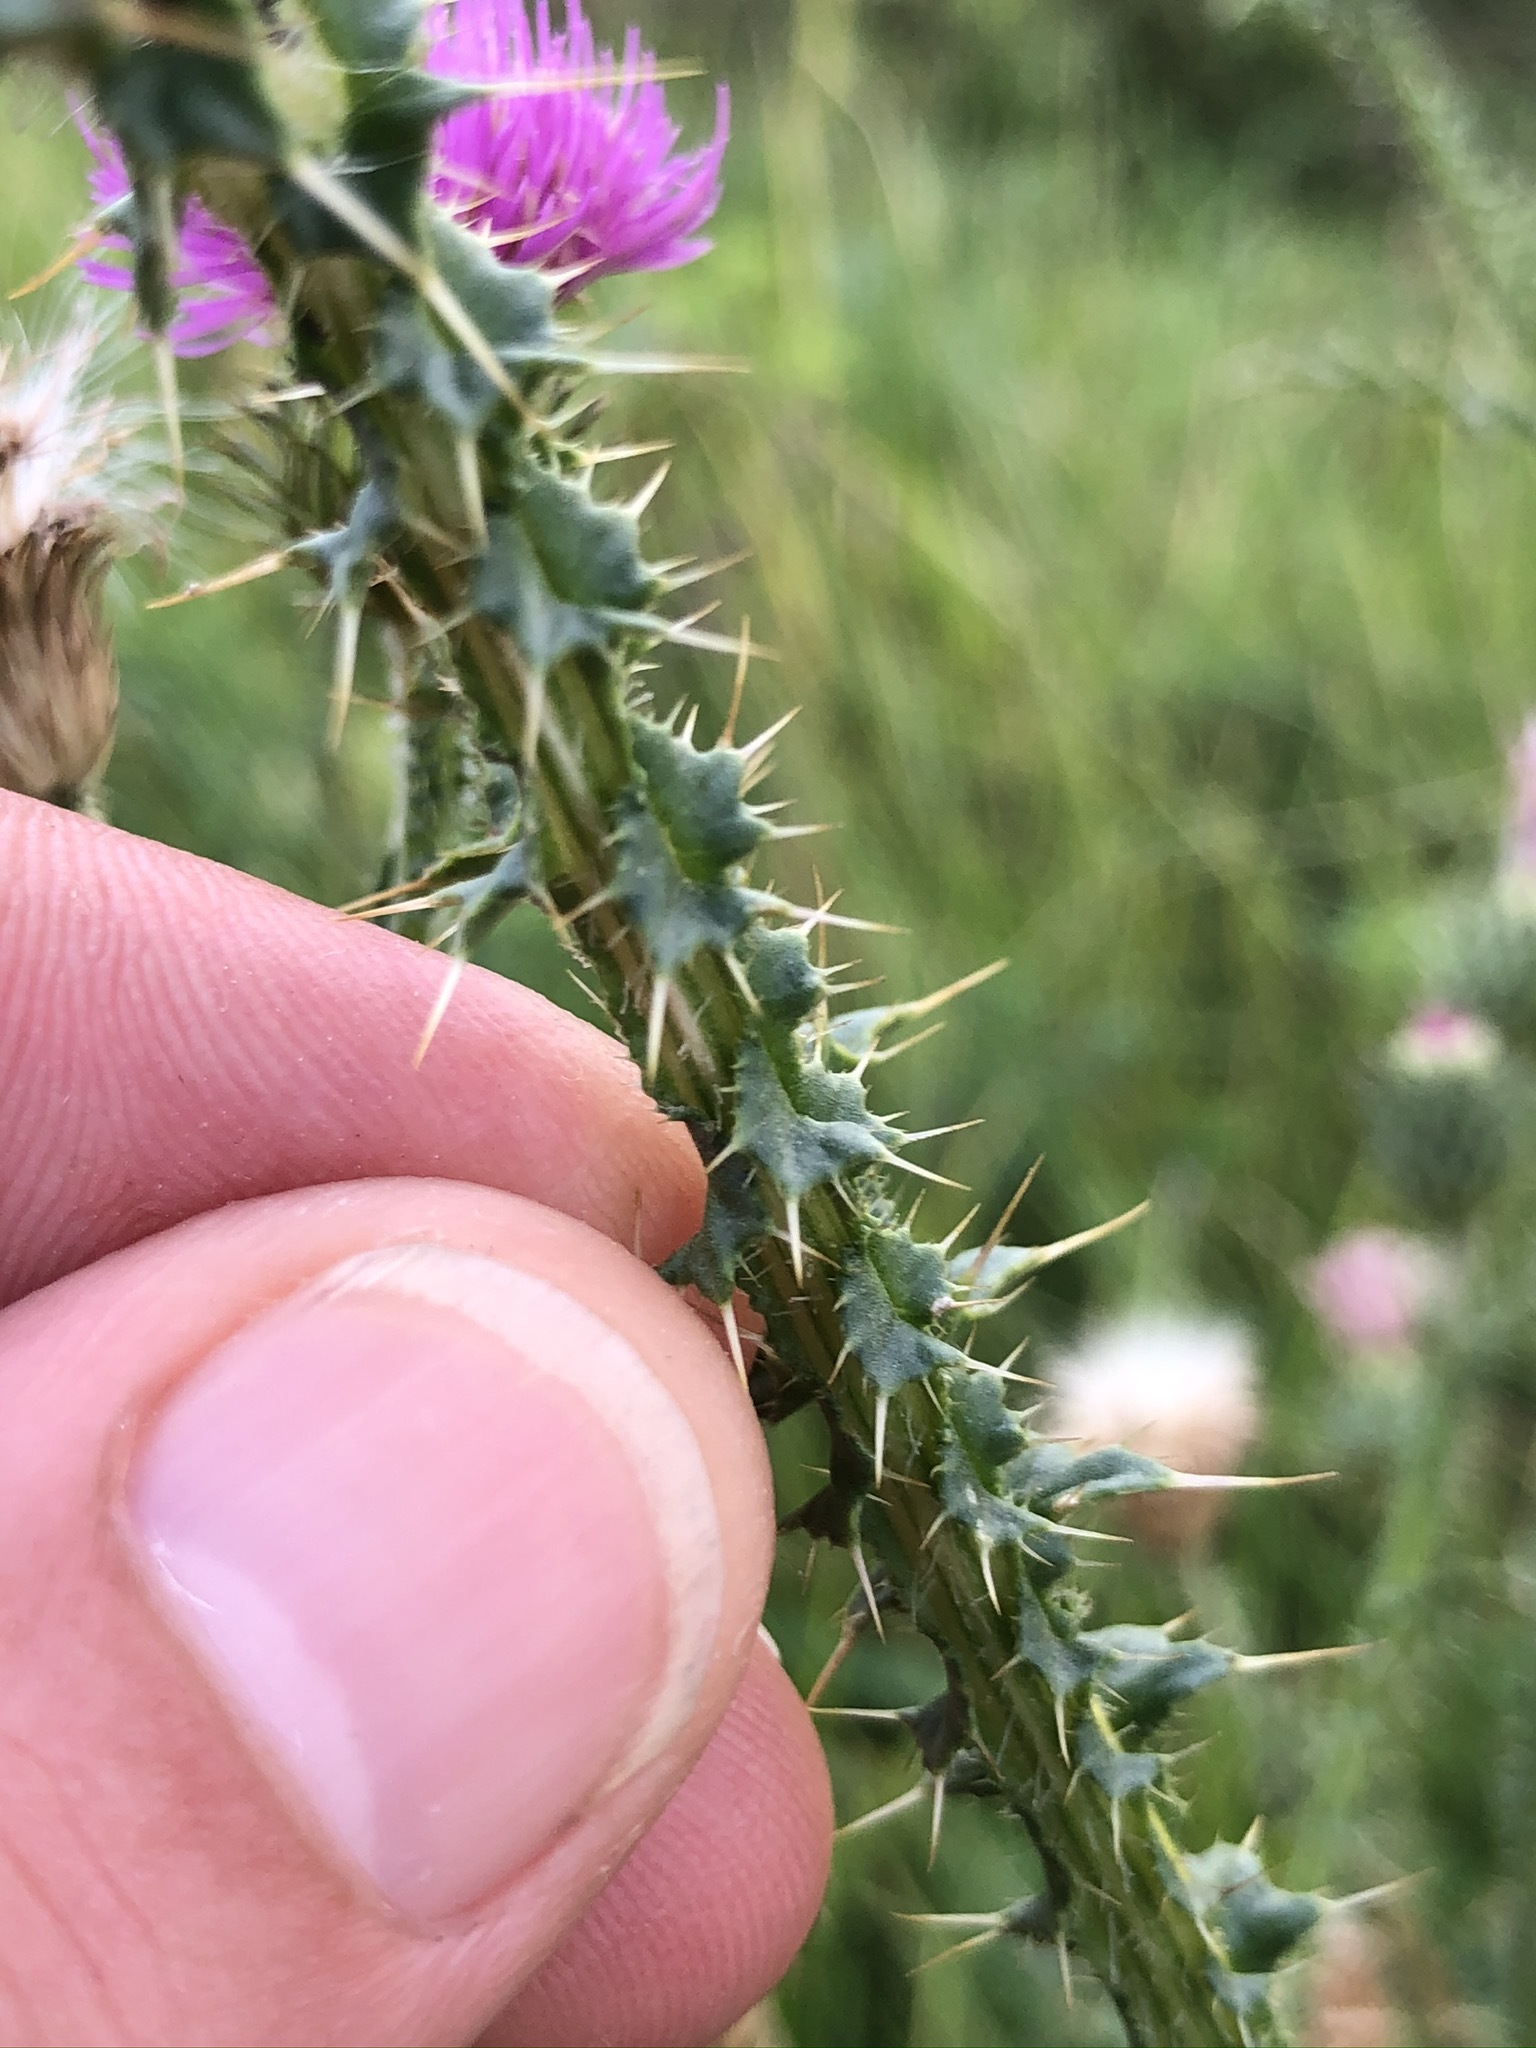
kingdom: Plantae
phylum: Tracheophyta
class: Magnoliopsida
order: Asterales
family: Asteraceae
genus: Carduus
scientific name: Carduus acanthoides
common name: Plumeless thistle
